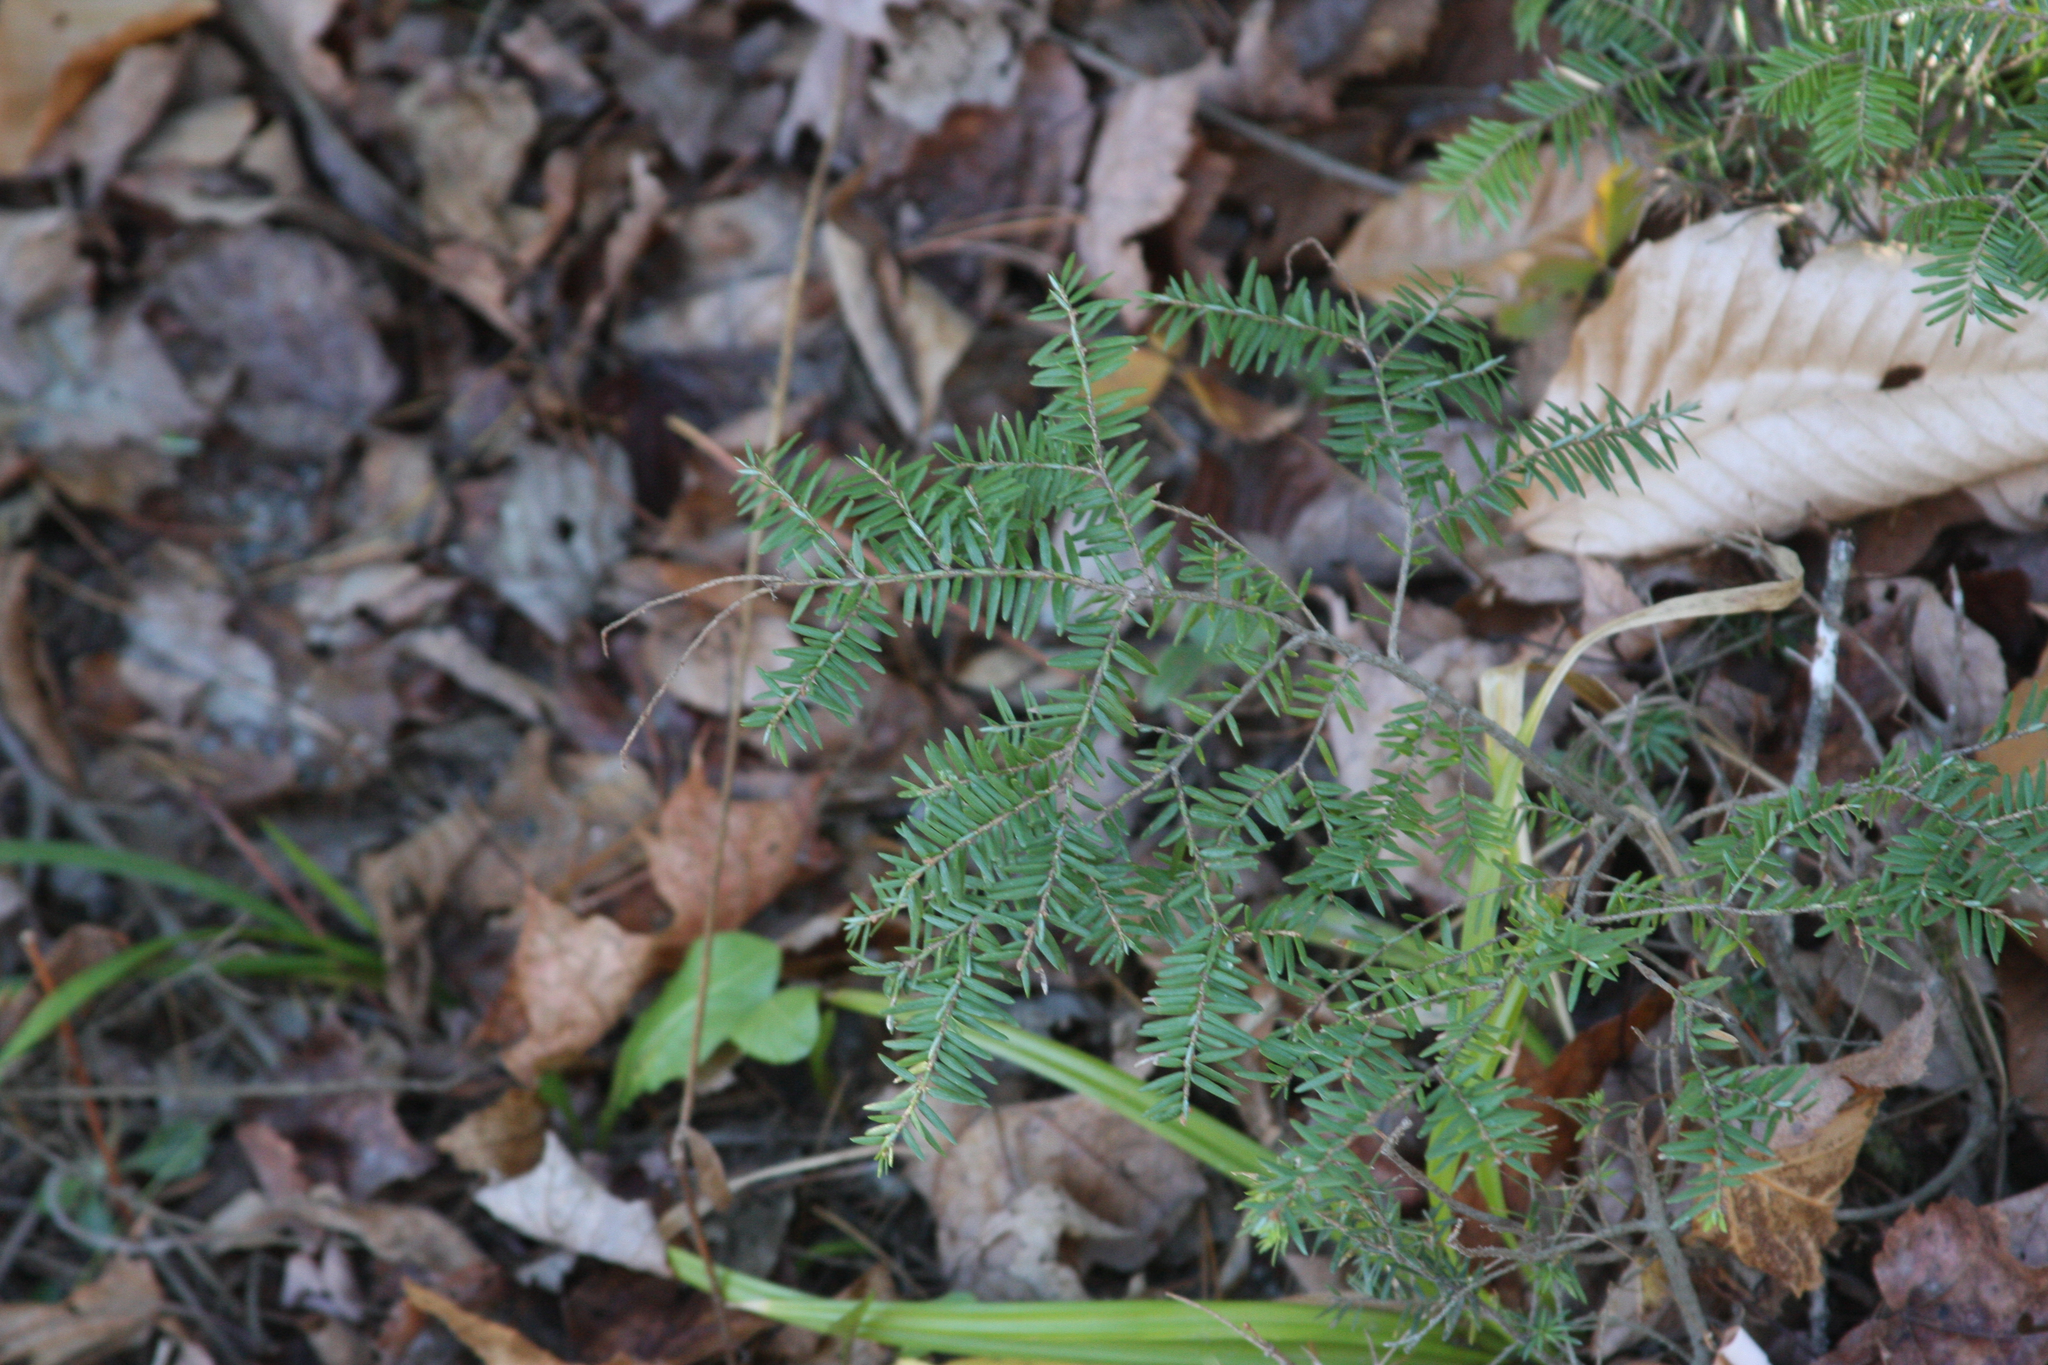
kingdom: Plantae
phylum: Tracheophyta
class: Pinopsida
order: Pinales
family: Pinaceae
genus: Tsuga
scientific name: Tsuga canadensis
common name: Eastern hemlock
